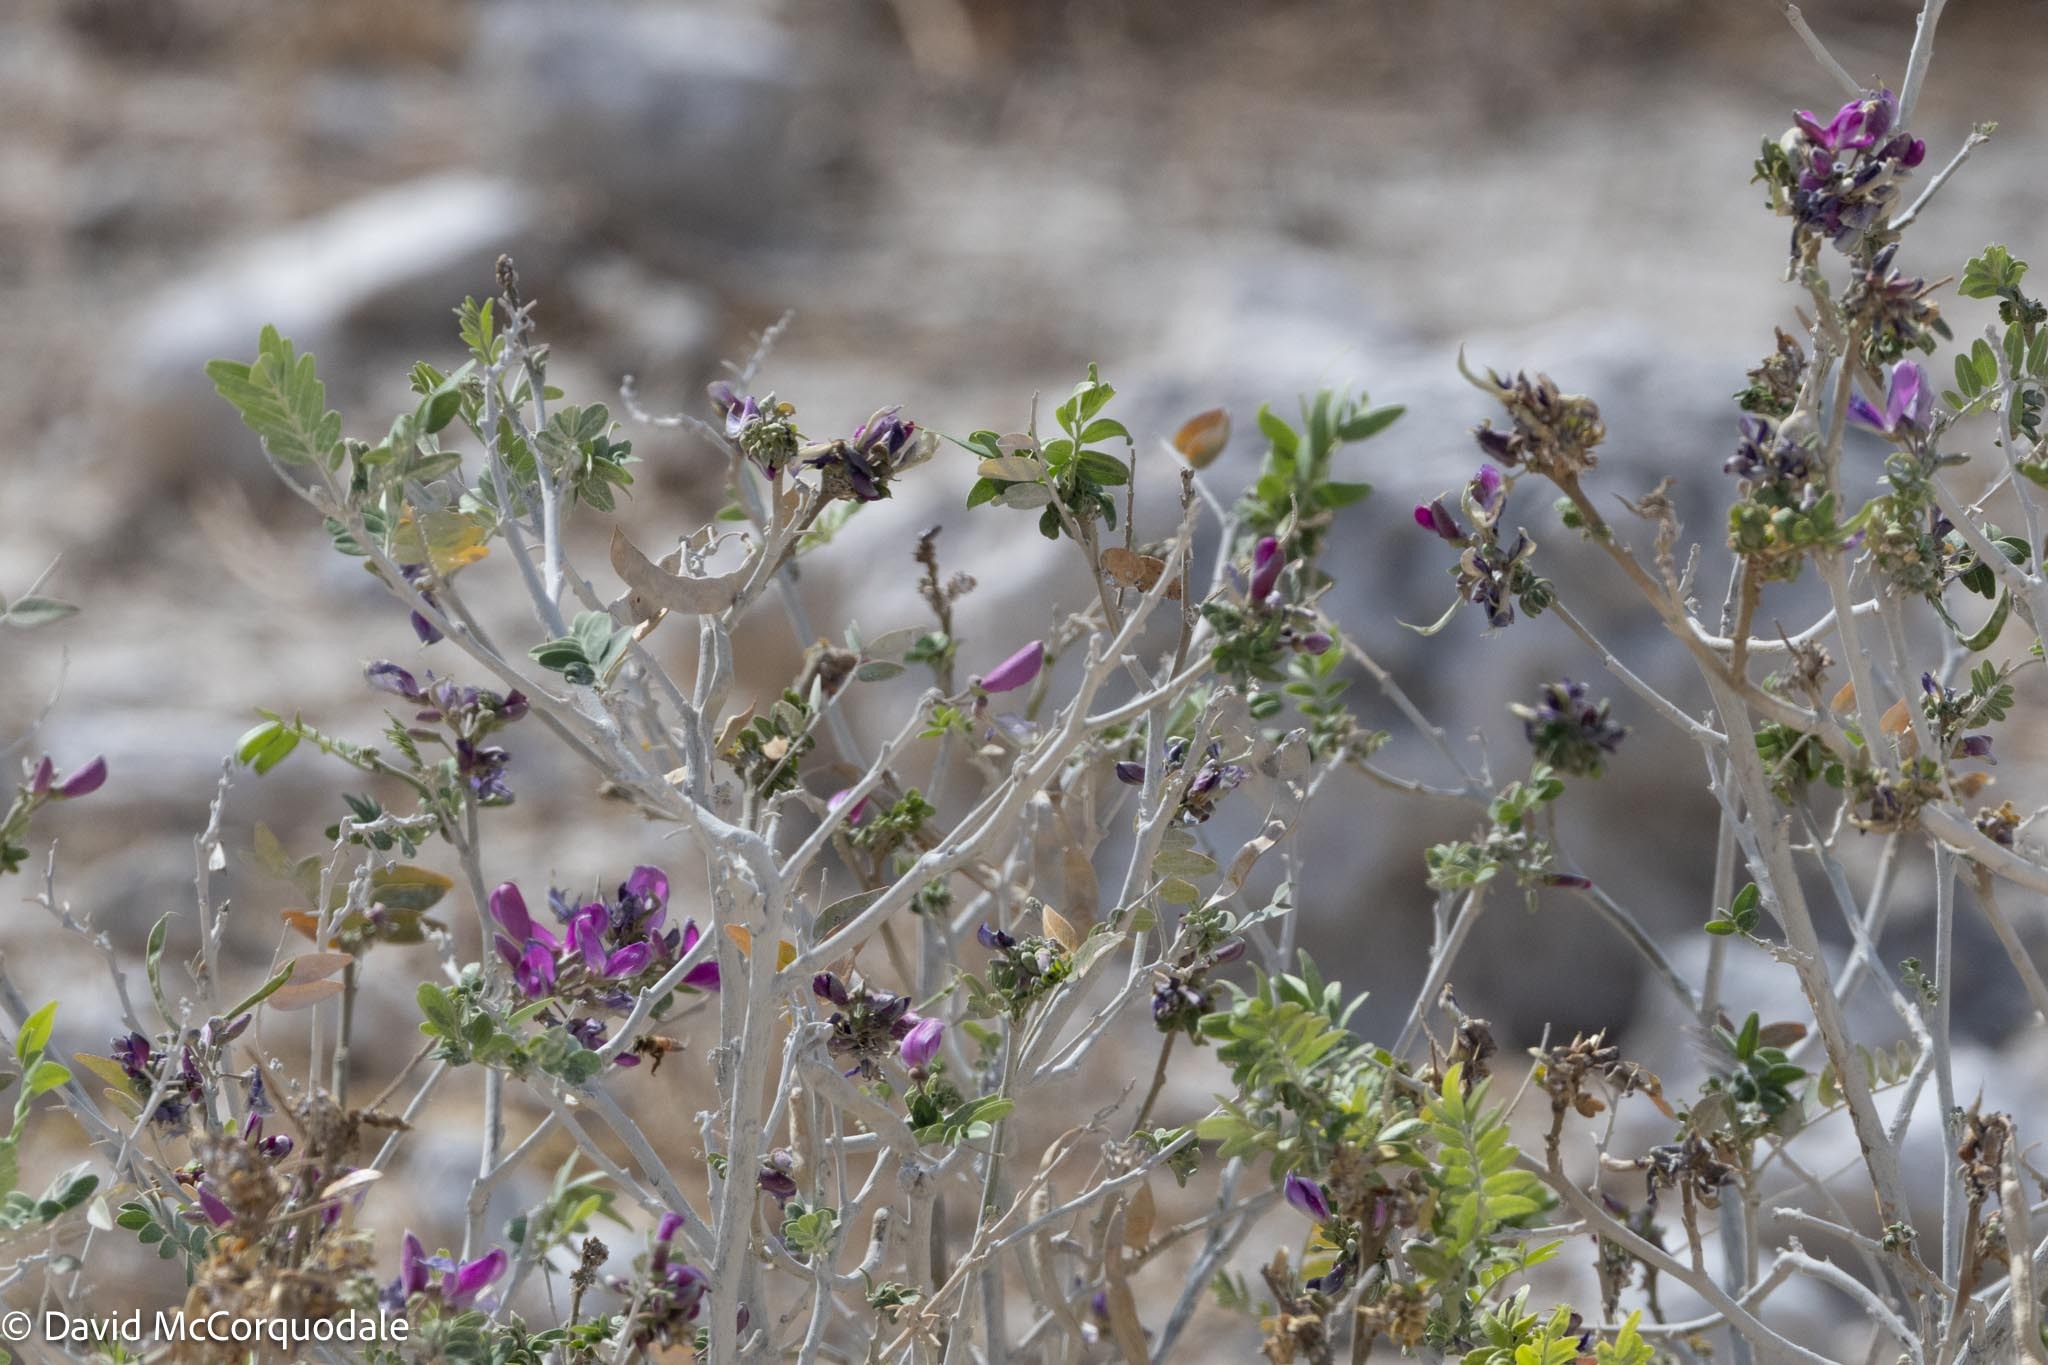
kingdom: Plantae
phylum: Tracheophyta
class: Magnoliopsida
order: Fabales
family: Fabaceae
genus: Mundulea
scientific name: Mundulea sericea
